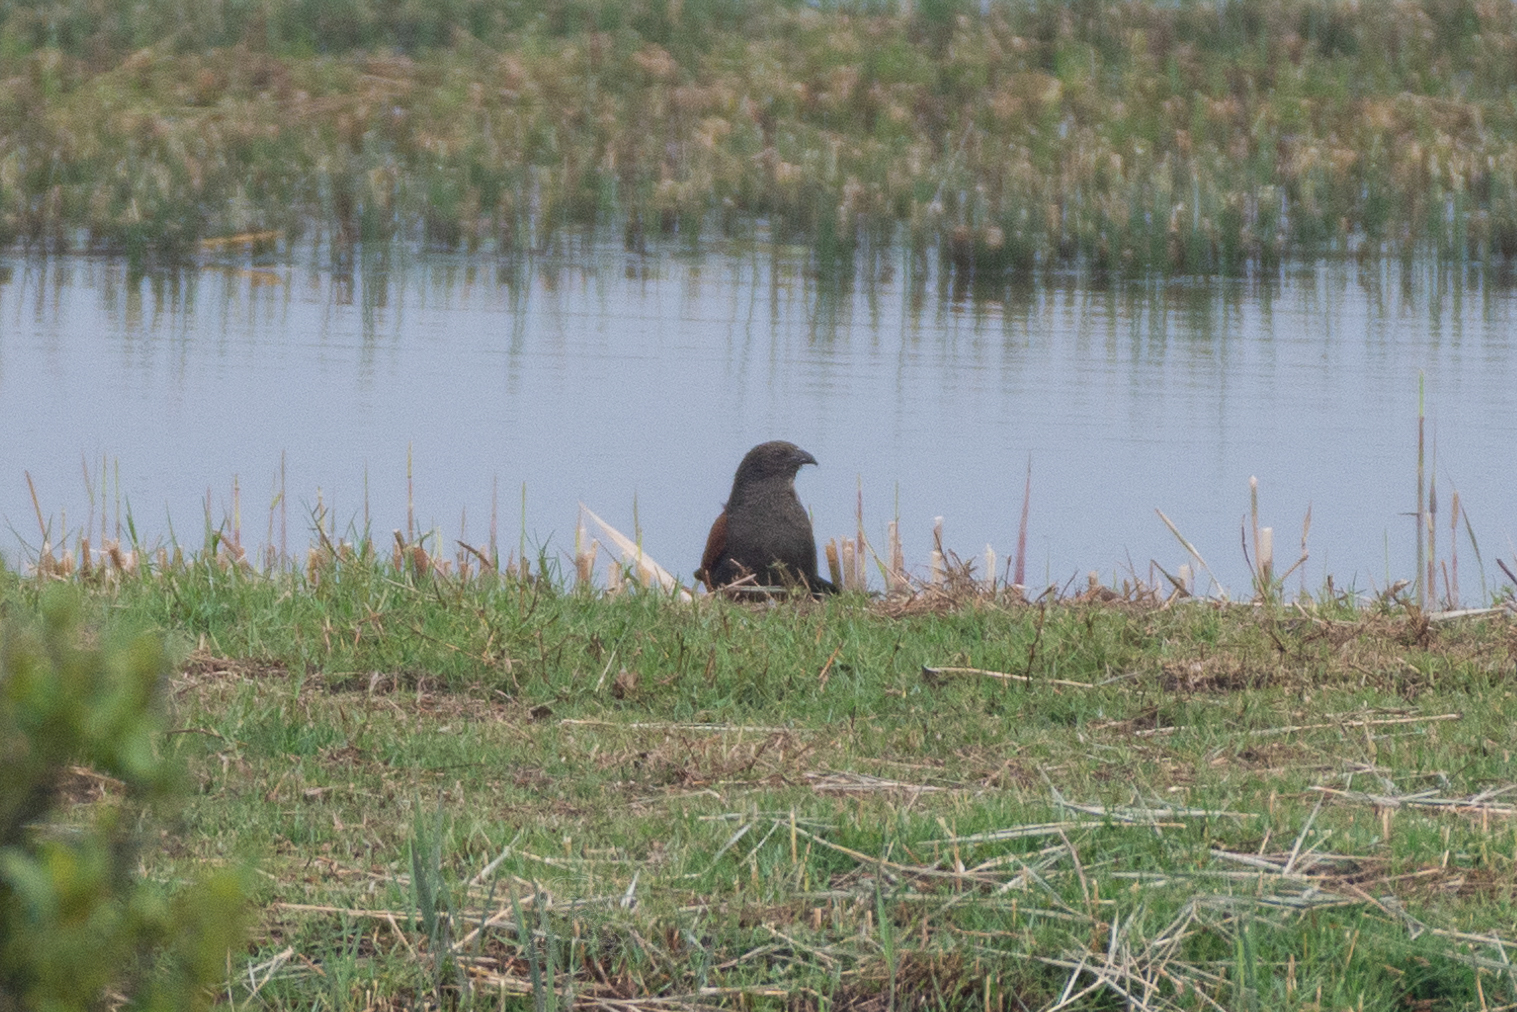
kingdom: Animalia
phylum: Chordata
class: Aves
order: Cuculiformes
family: Cuculidae
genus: Centropus
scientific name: Centropus sinensis
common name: Greater coucal
